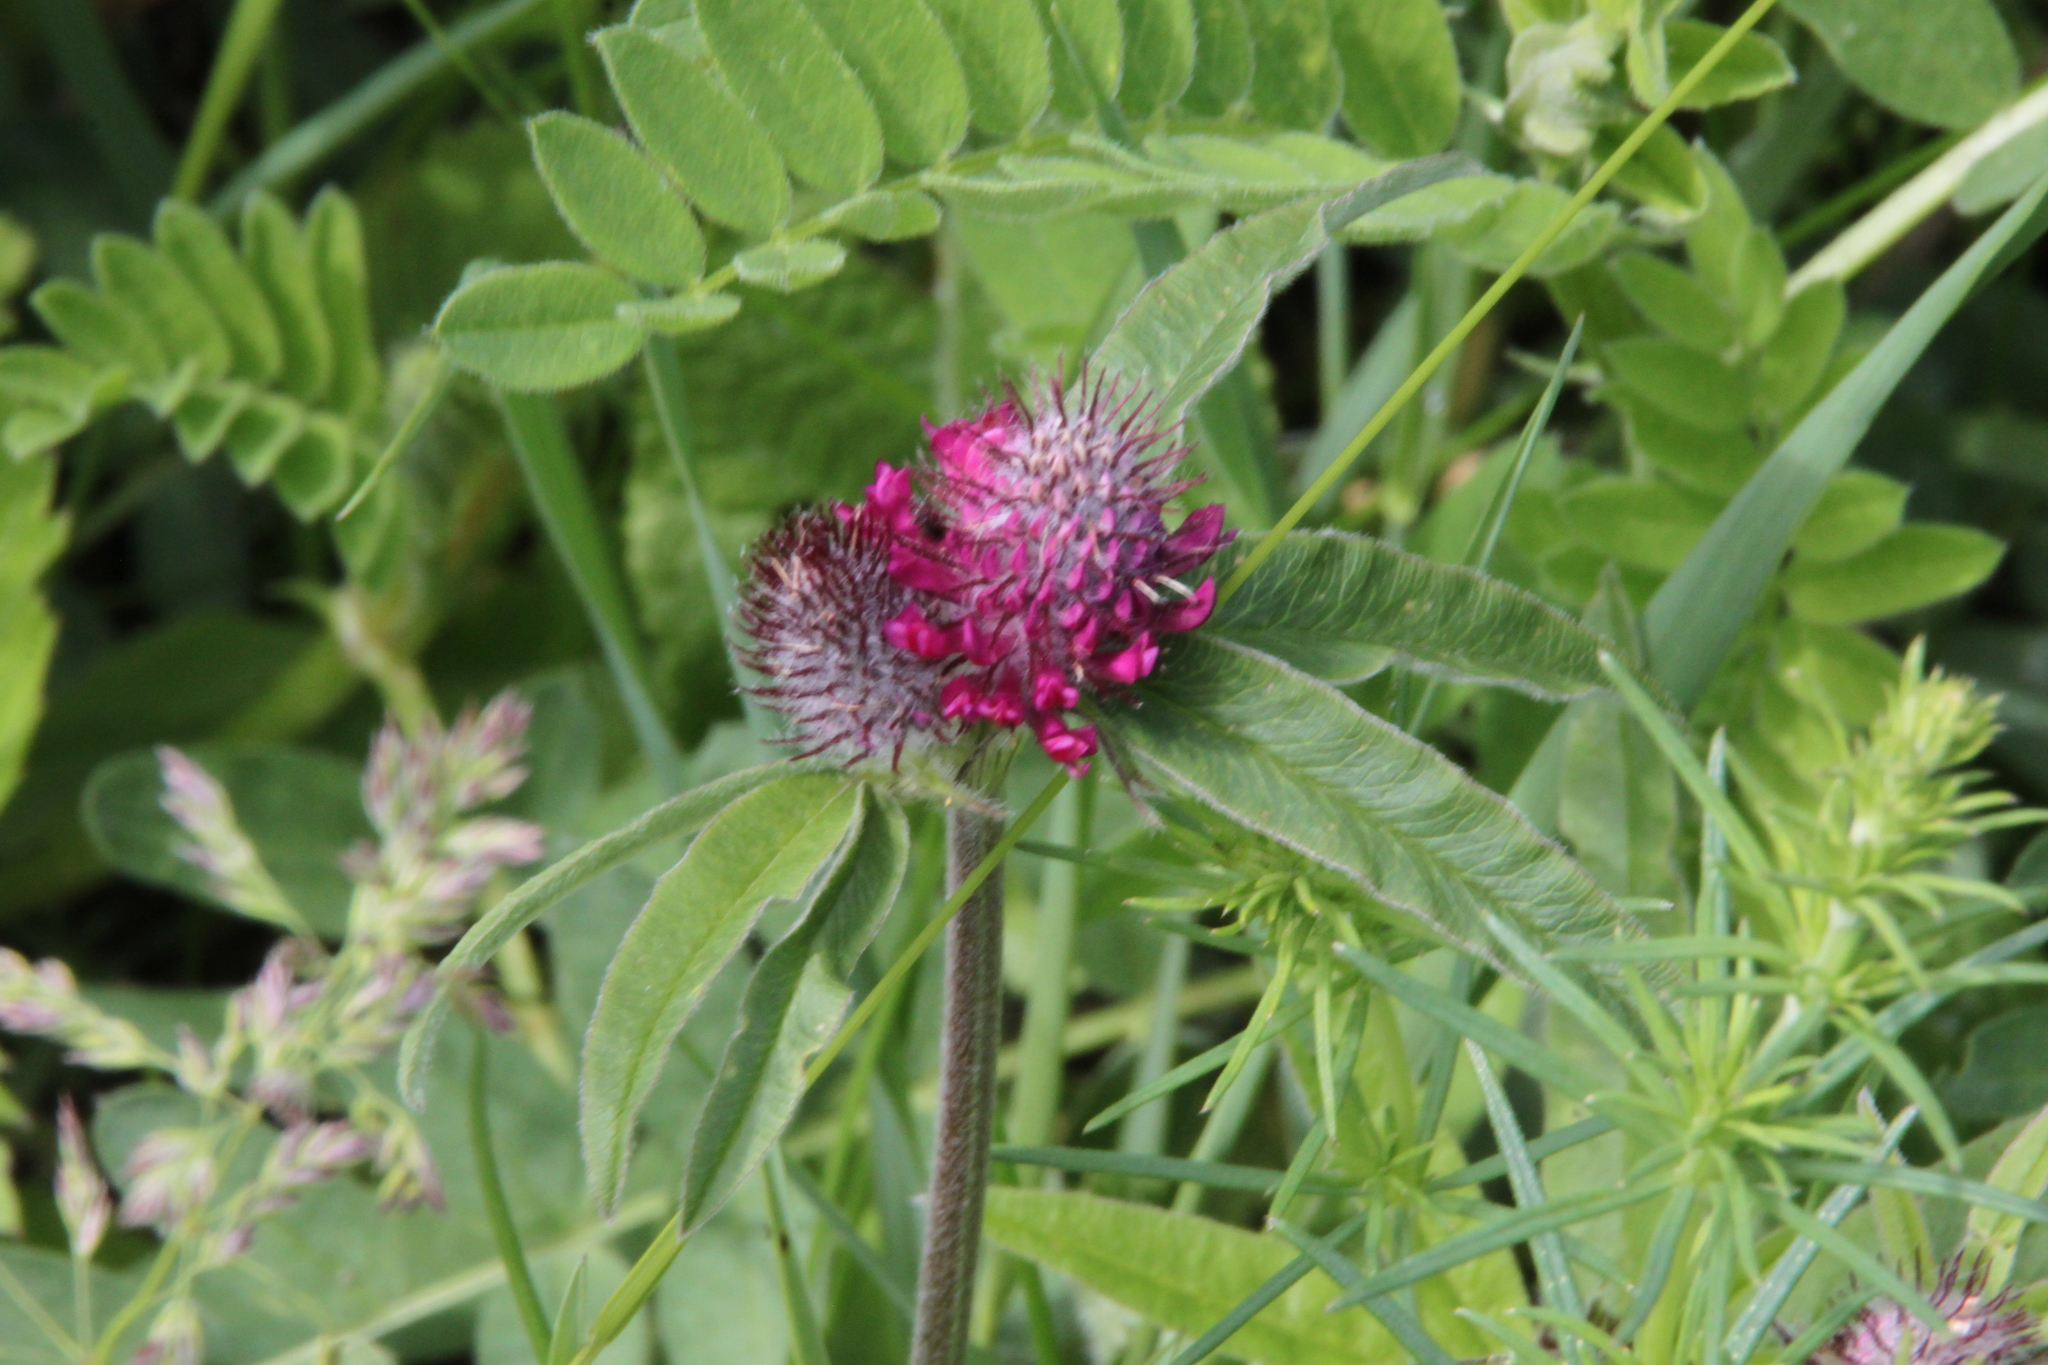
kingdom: Plantae
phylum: Tracheophyta
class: Magnoliopsida
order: Fabales
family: Fabaceae
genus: Trifolium
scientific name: Trifolium alpestre
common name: Owl-head clover
